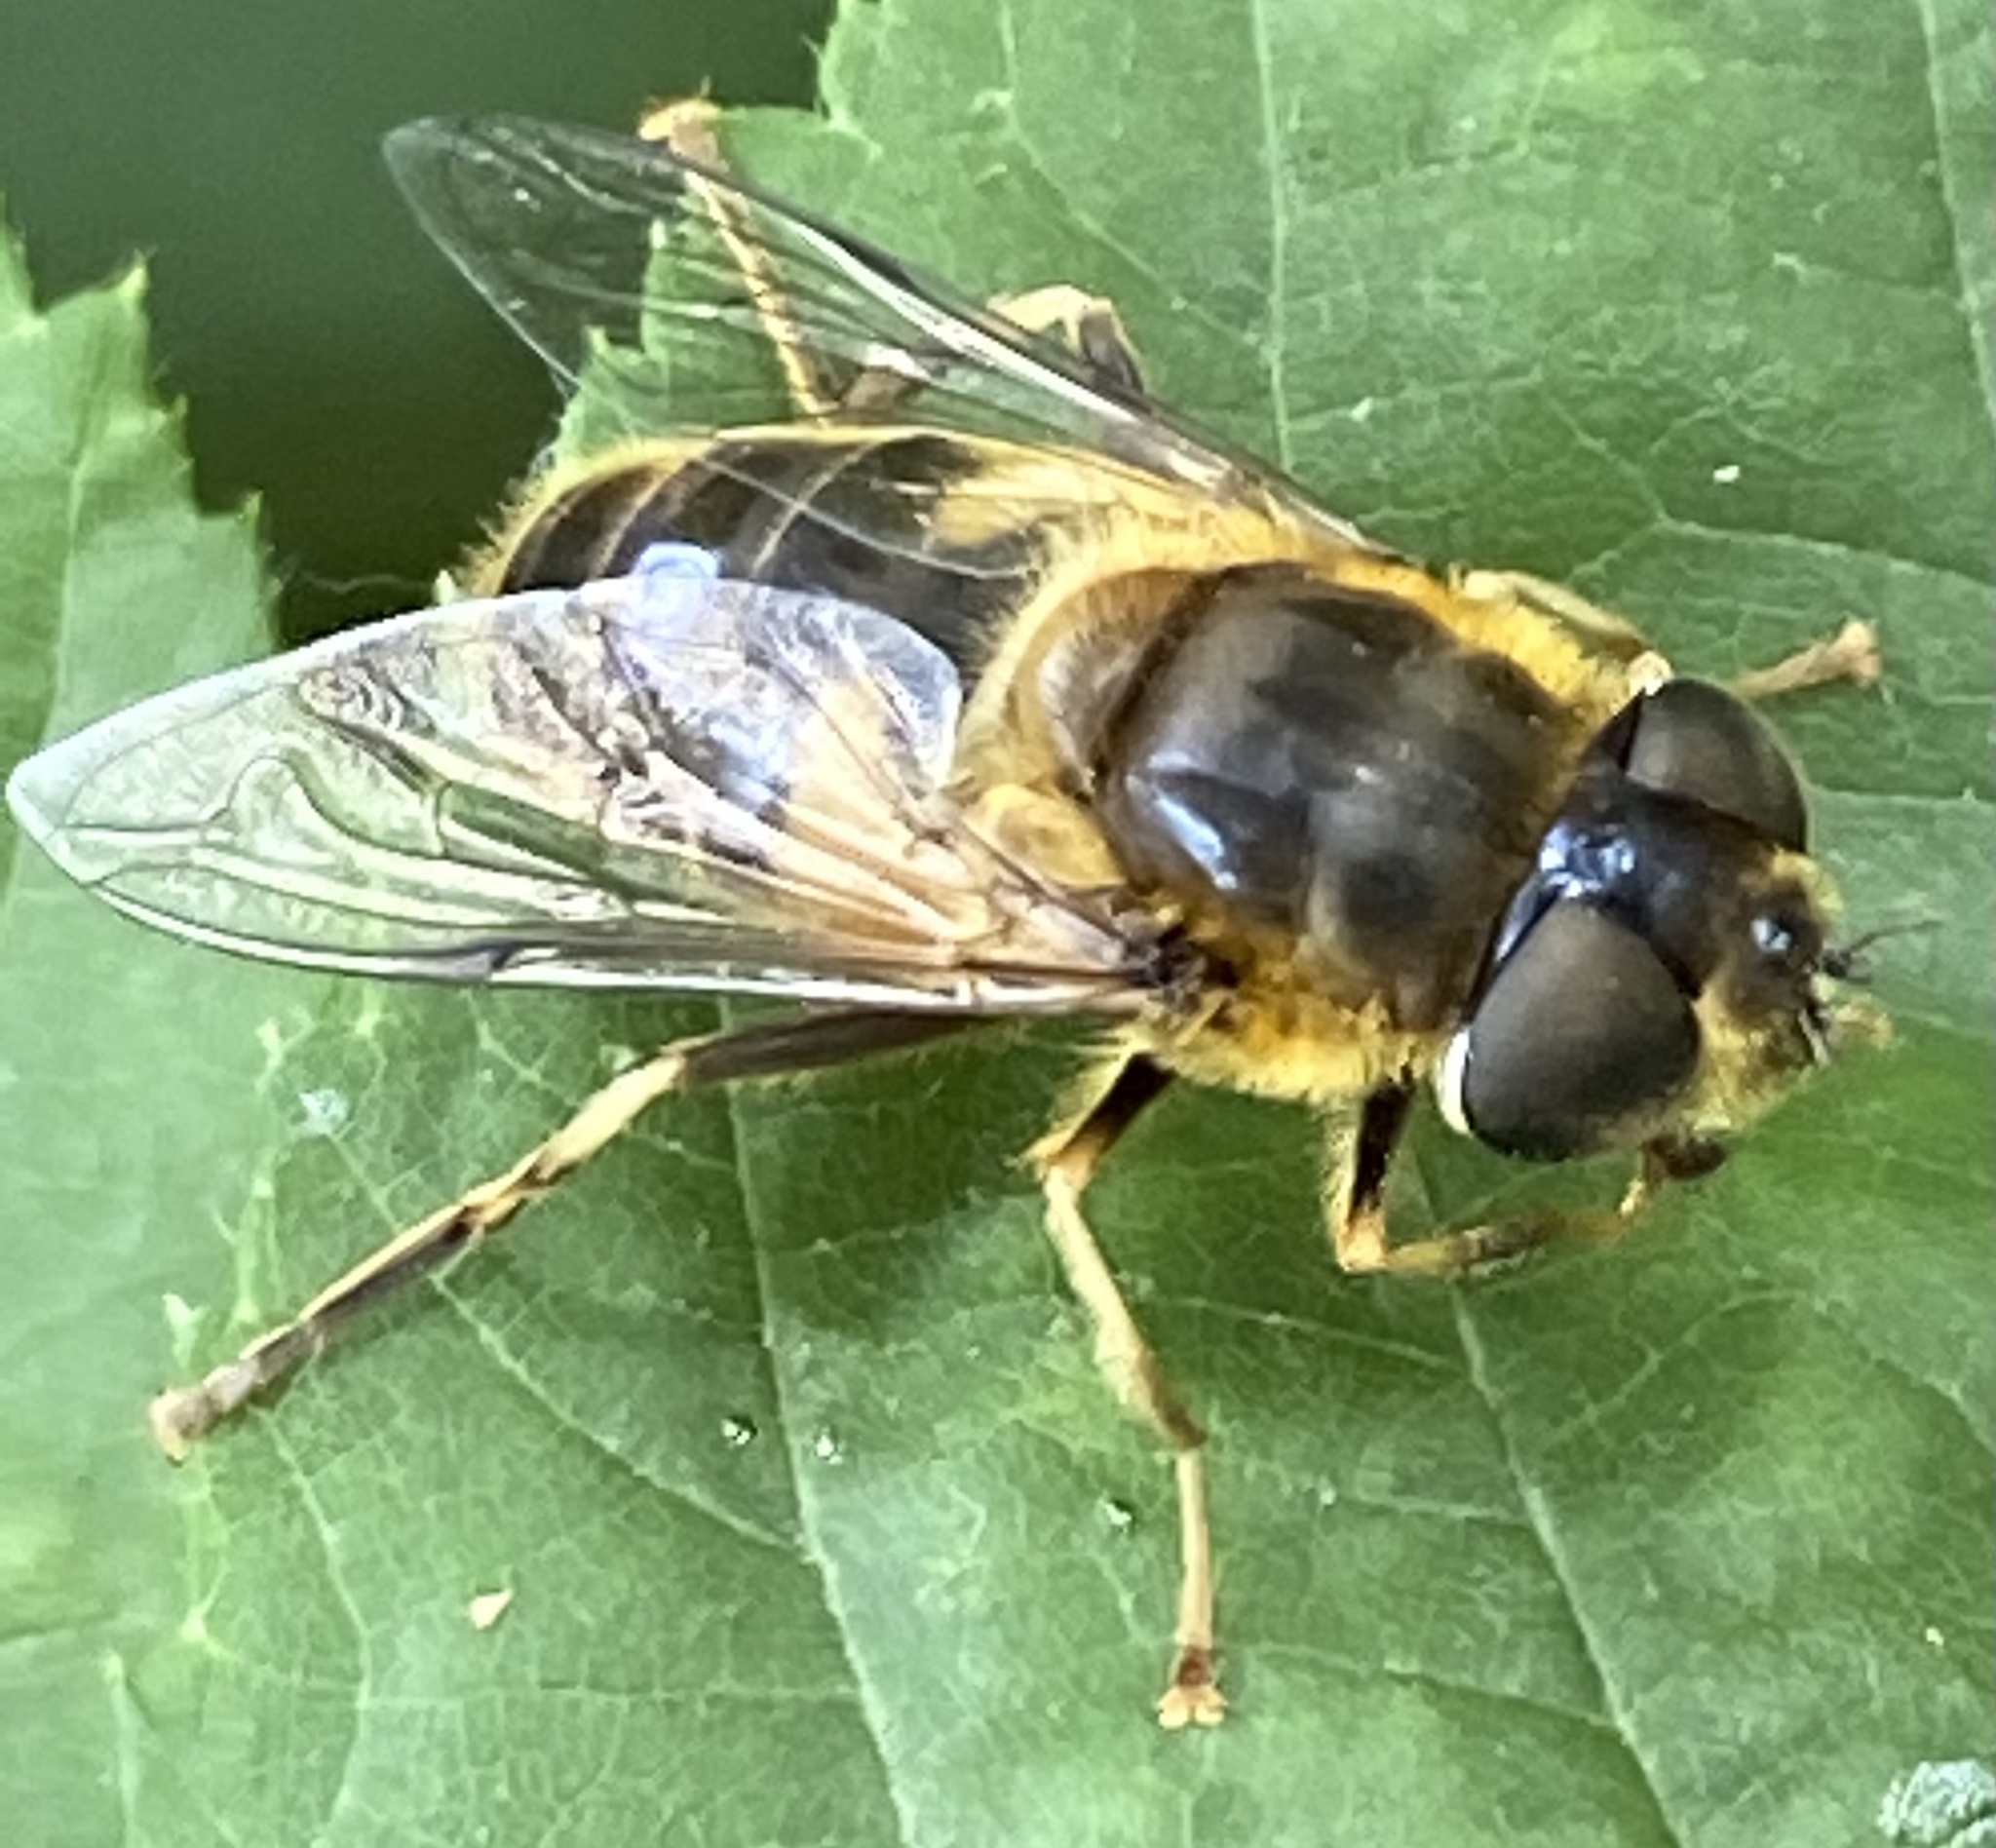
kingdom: Animalia
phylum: Arthropoda
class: Insecta
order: Diptera
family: Syrphidae
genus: Eristalis
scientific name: Eristalis pertinax
